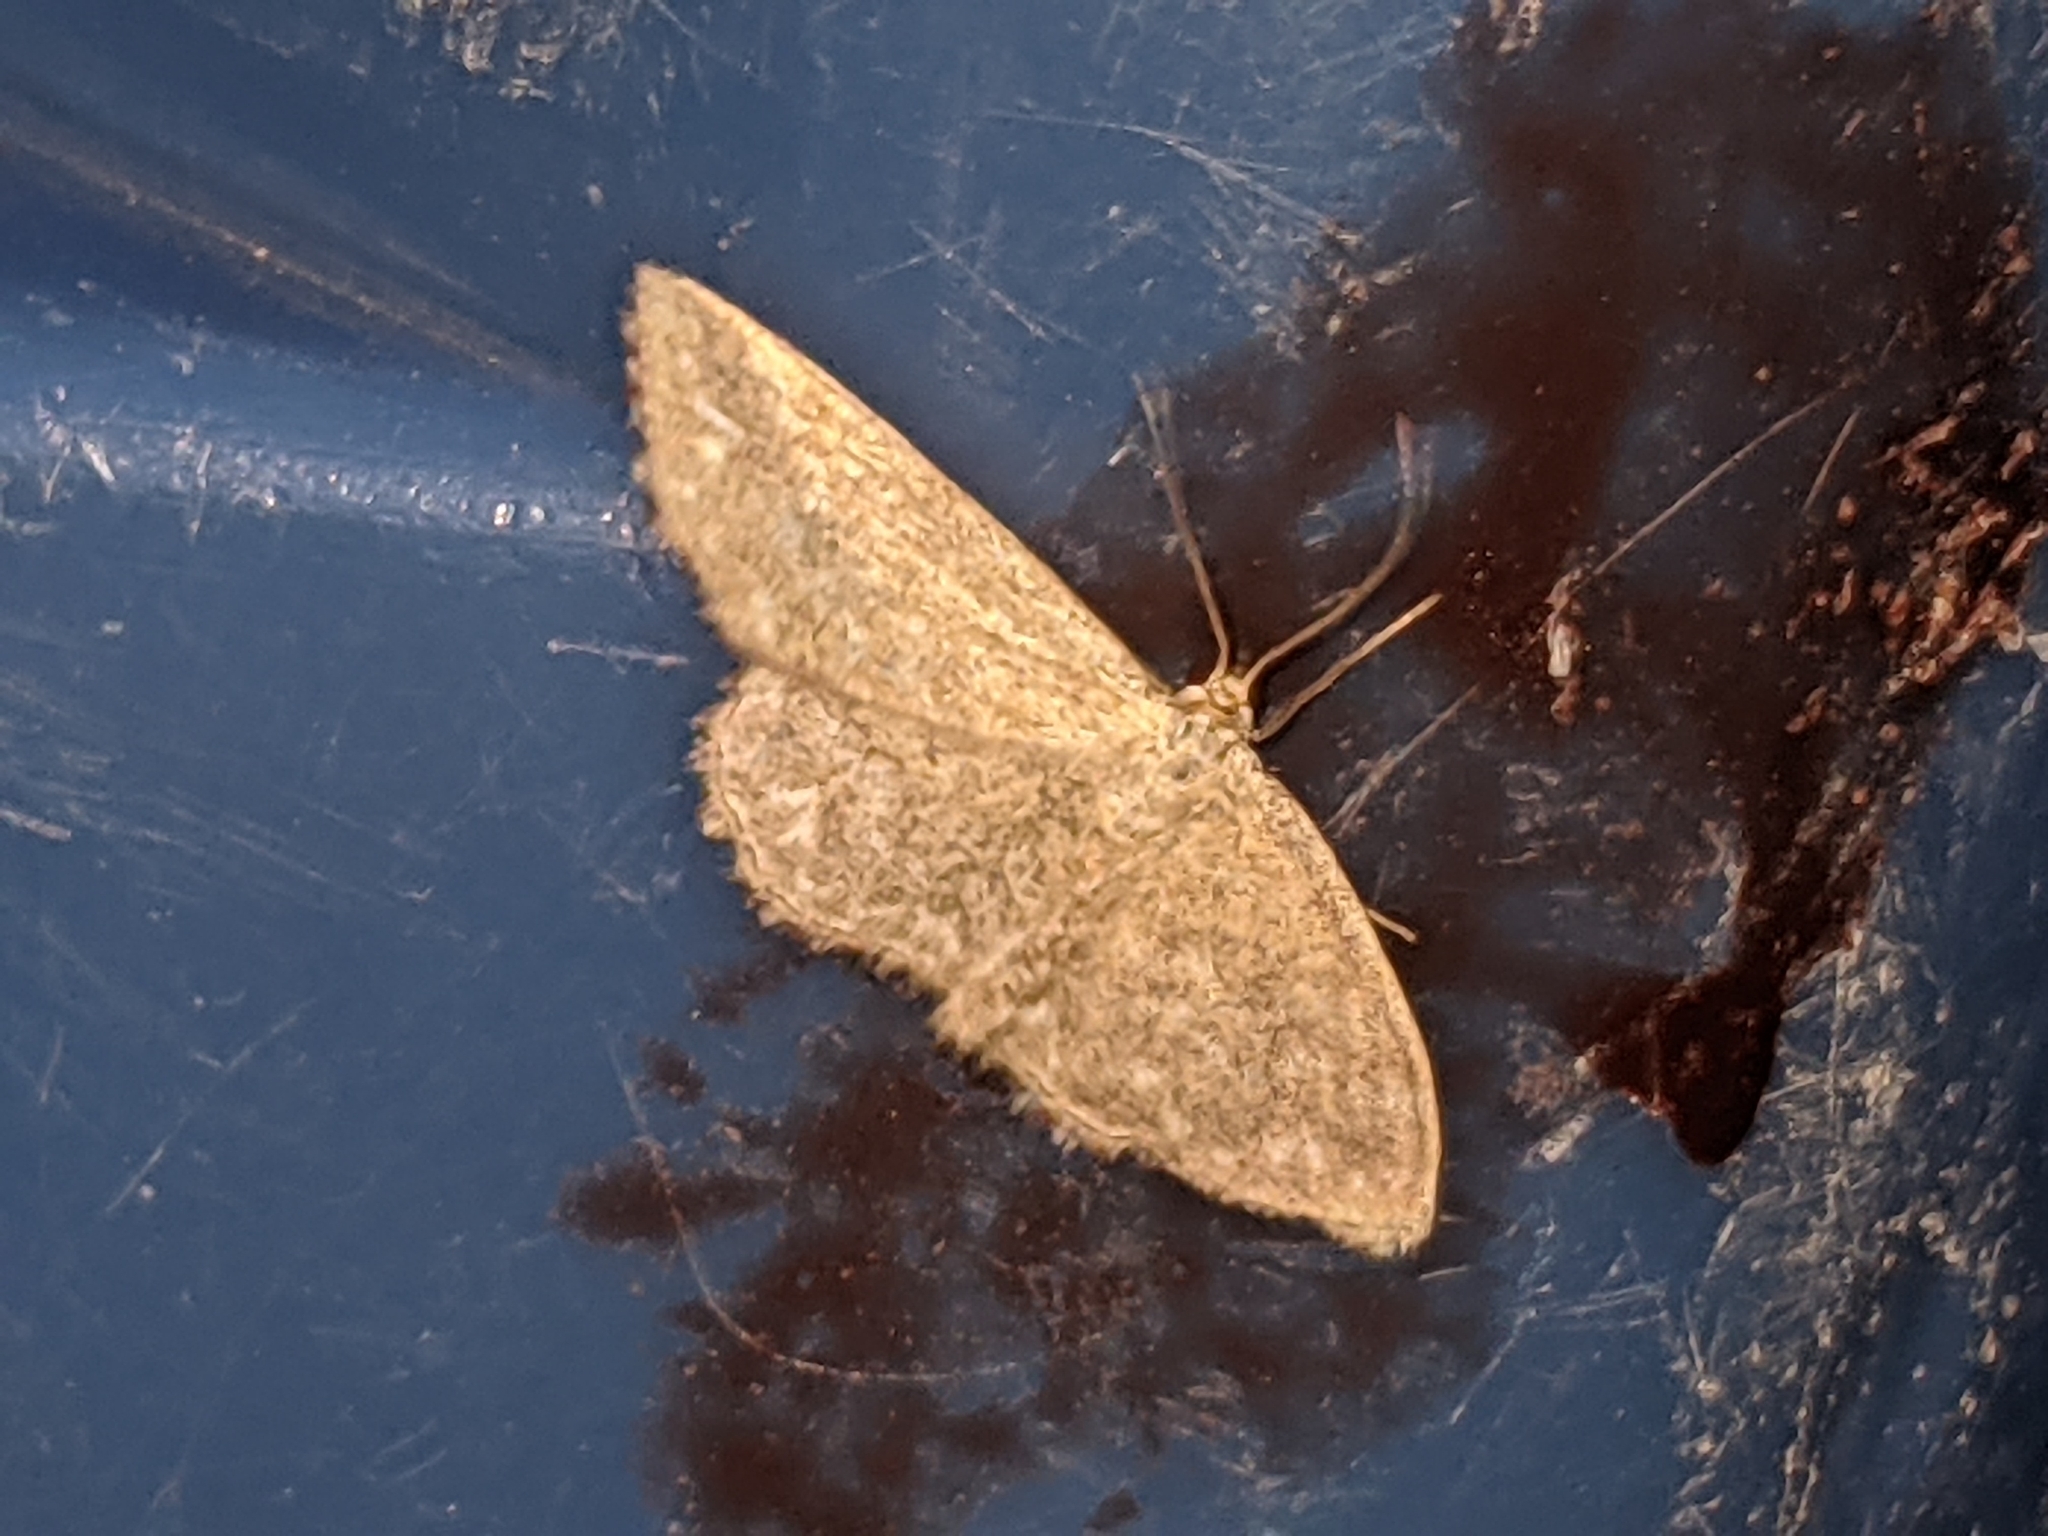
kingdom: Animalia
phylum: Arthropoda
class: Insecta
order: Lepidoptera
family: Geometridae
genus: Scopula
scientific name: Scopula immorata
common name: Lewes wave
